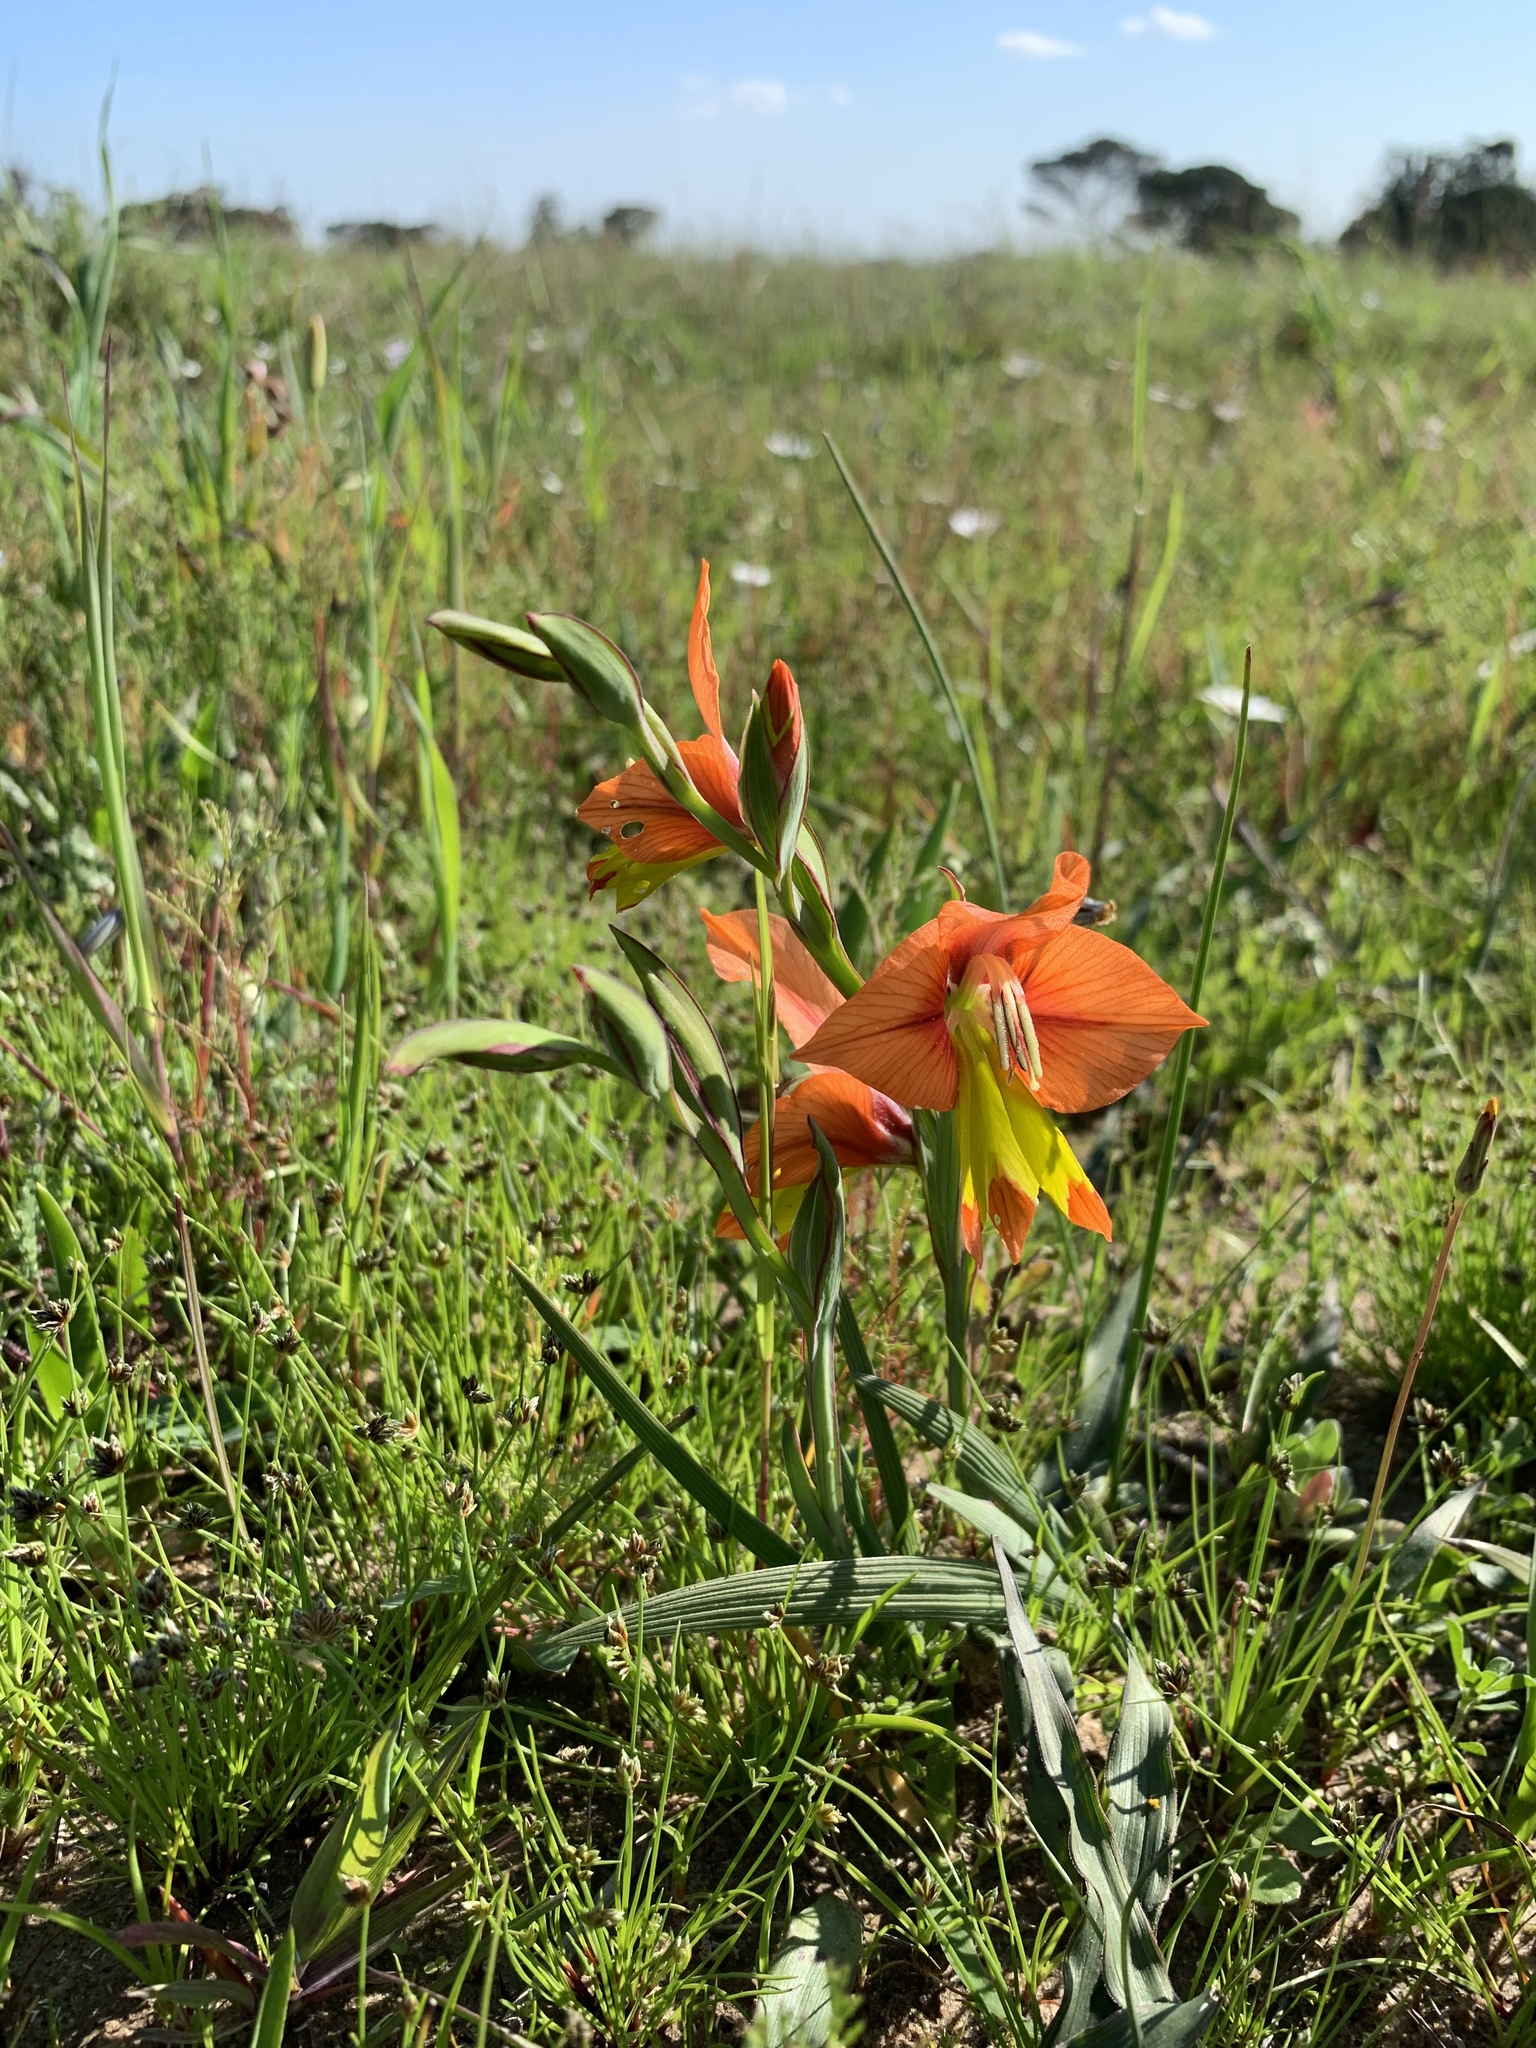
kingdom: Plantae
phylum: Tracheophyta
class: Liliopsida
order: Asparagales
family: Iridaceae
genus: Gladiolus
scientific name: Gladiolus alatus
